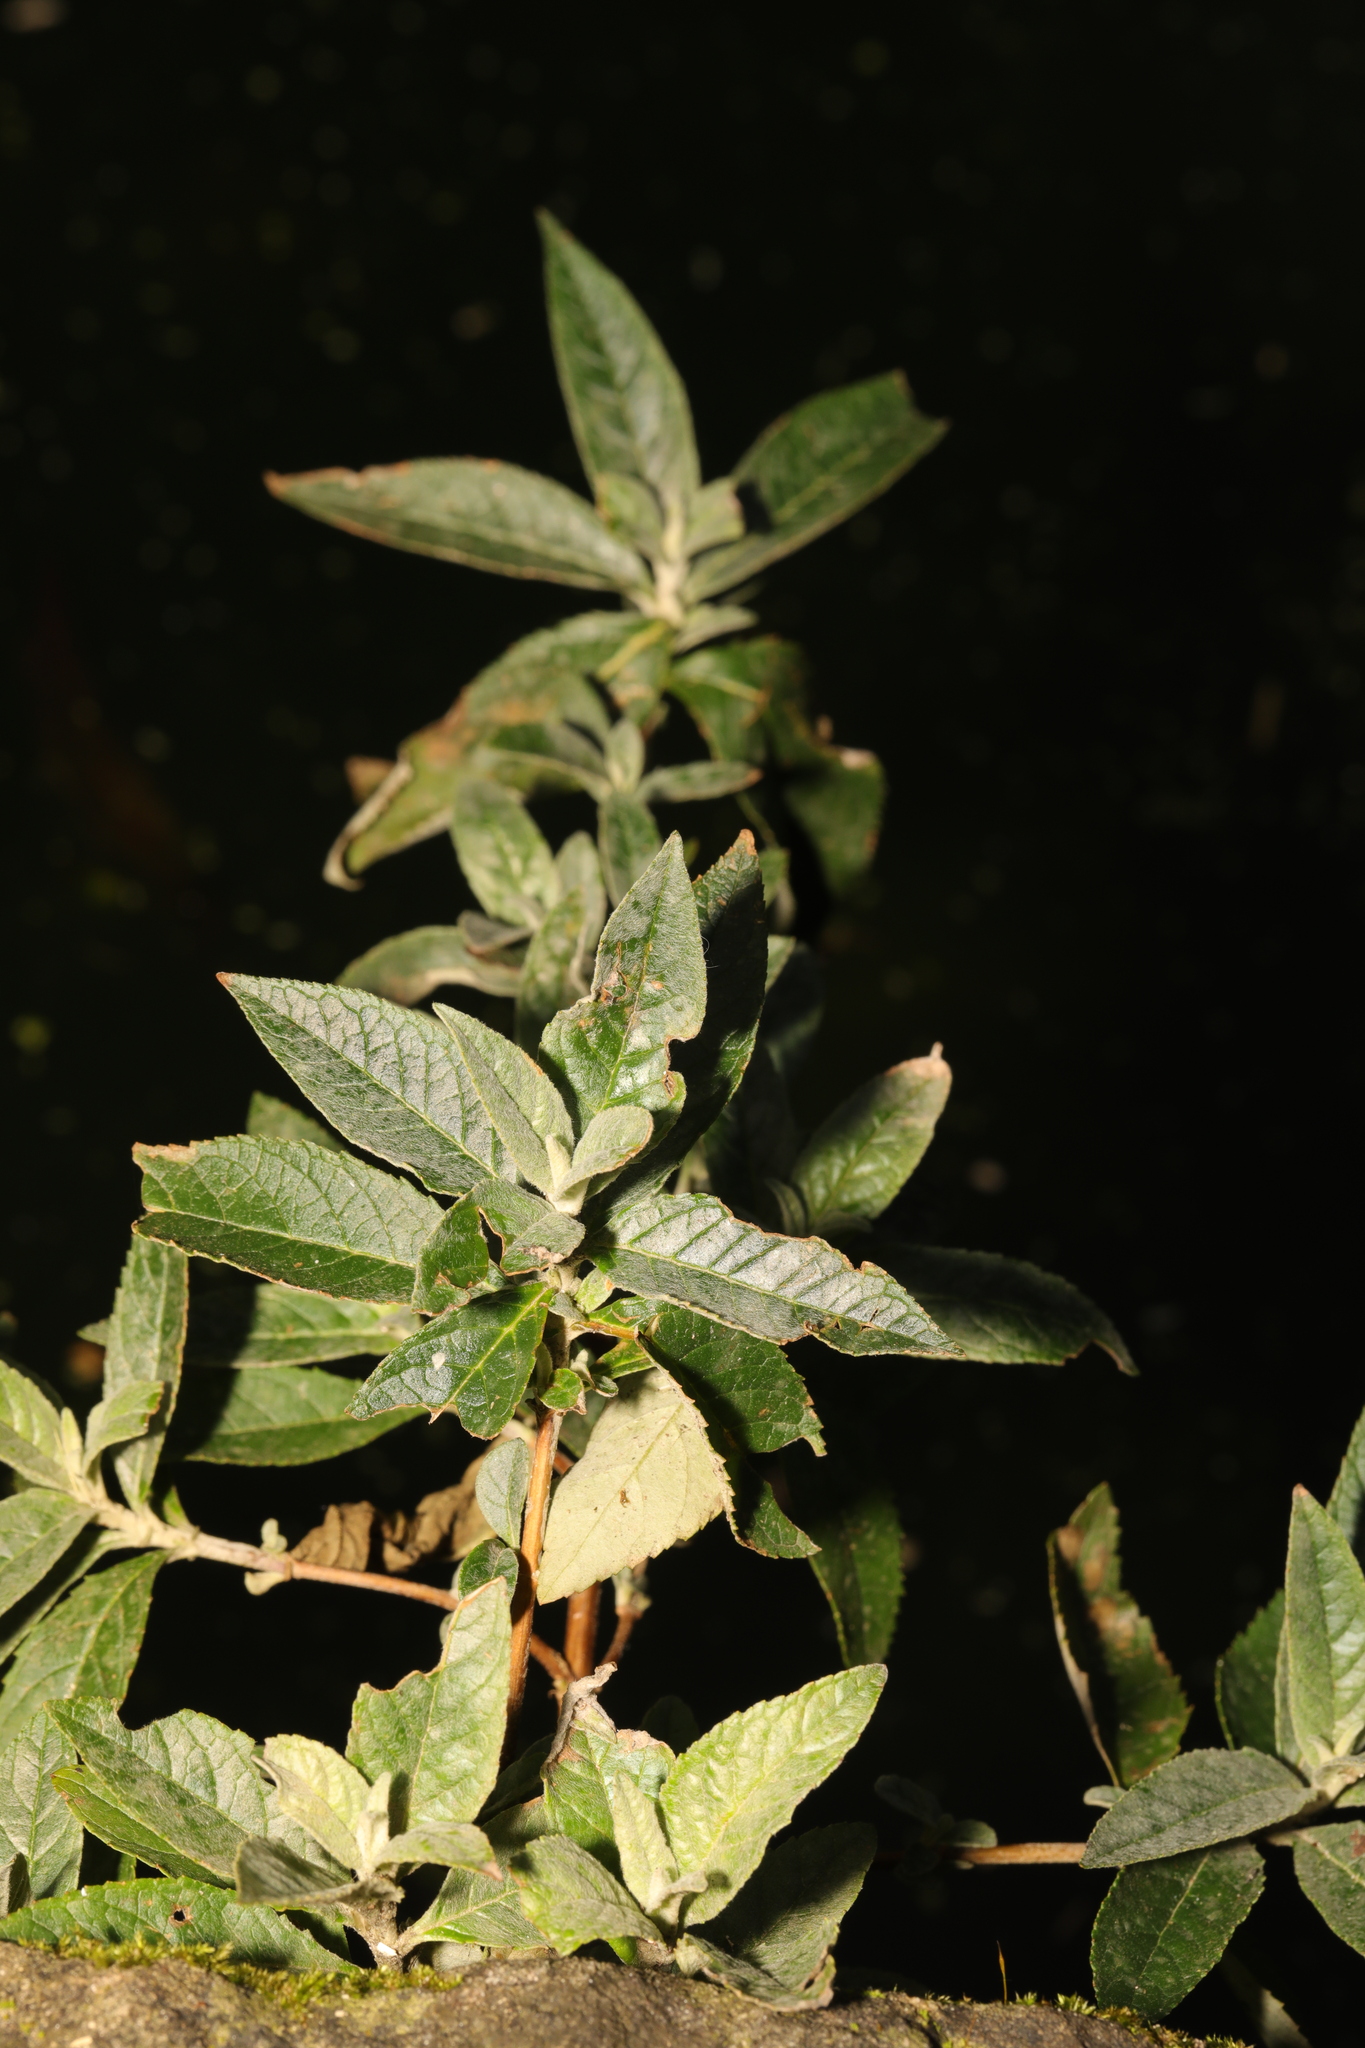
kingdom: Plantae
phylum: Tracheophyta
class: Magnoliopsida
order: Lamiales
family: Scrophulariaceae
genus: Buddleja
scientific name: Buddleja davidii
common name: Butterfly-bush
